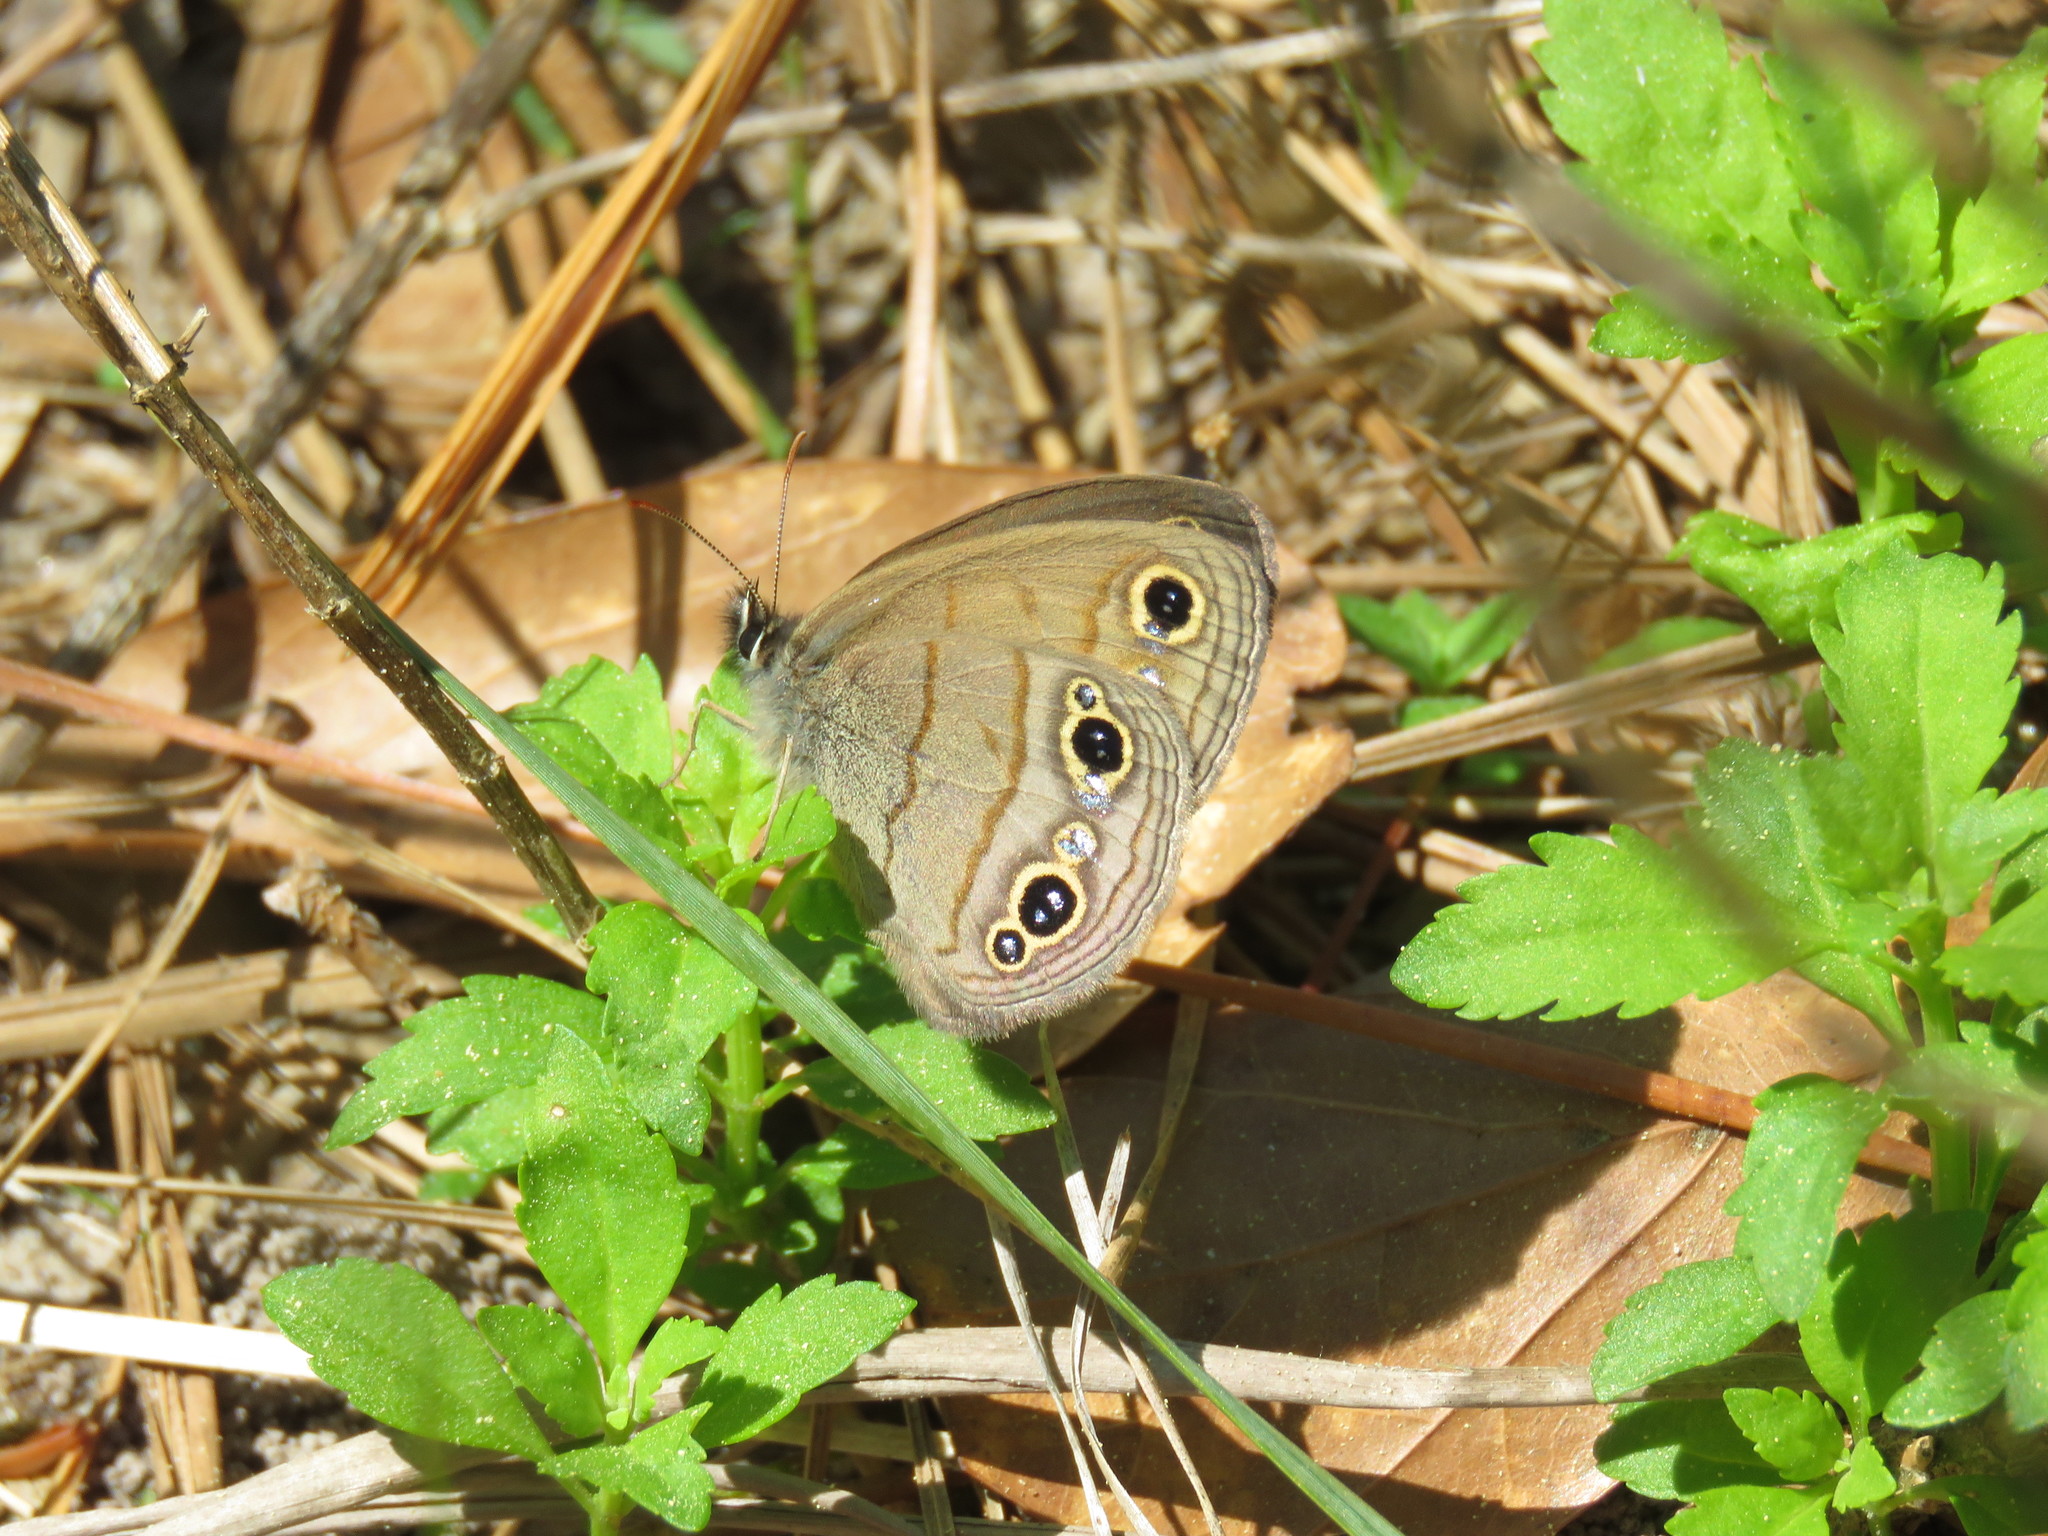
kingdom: Animalia
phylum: Arthropoda
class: Insecta
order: Lepidoptera
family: Nymphalidae
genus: Euptychia
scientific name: Euptychia cymela
